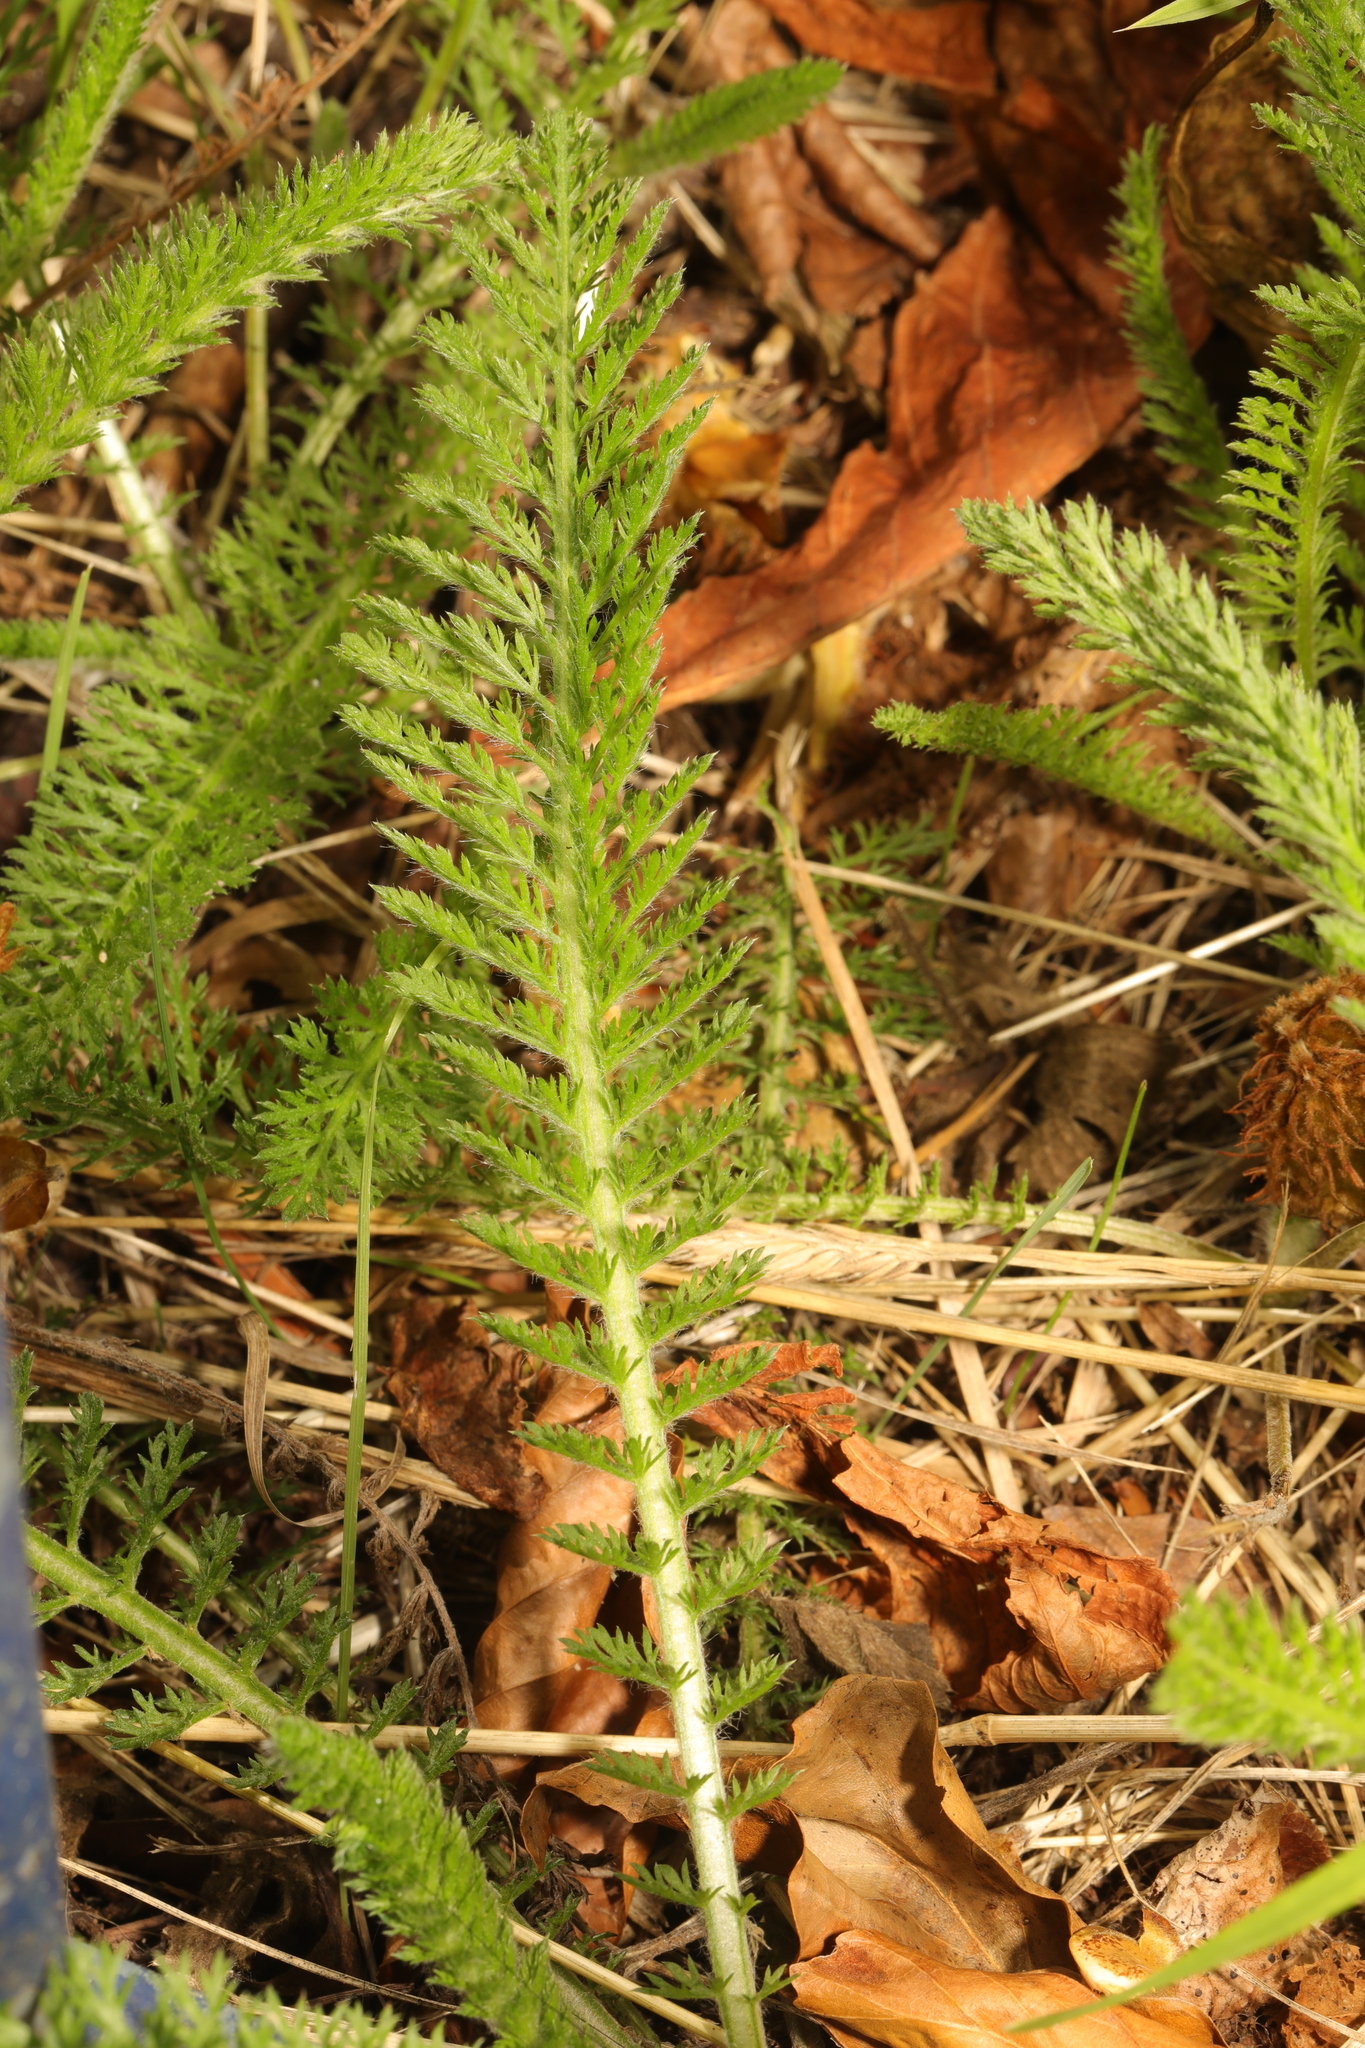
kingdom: Plantae
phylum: Tracheophyta
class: Magnoliopsida
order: Asterales
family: Asteraceae
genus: Achillea
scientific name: Achillea millefolium
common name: Yarrow
